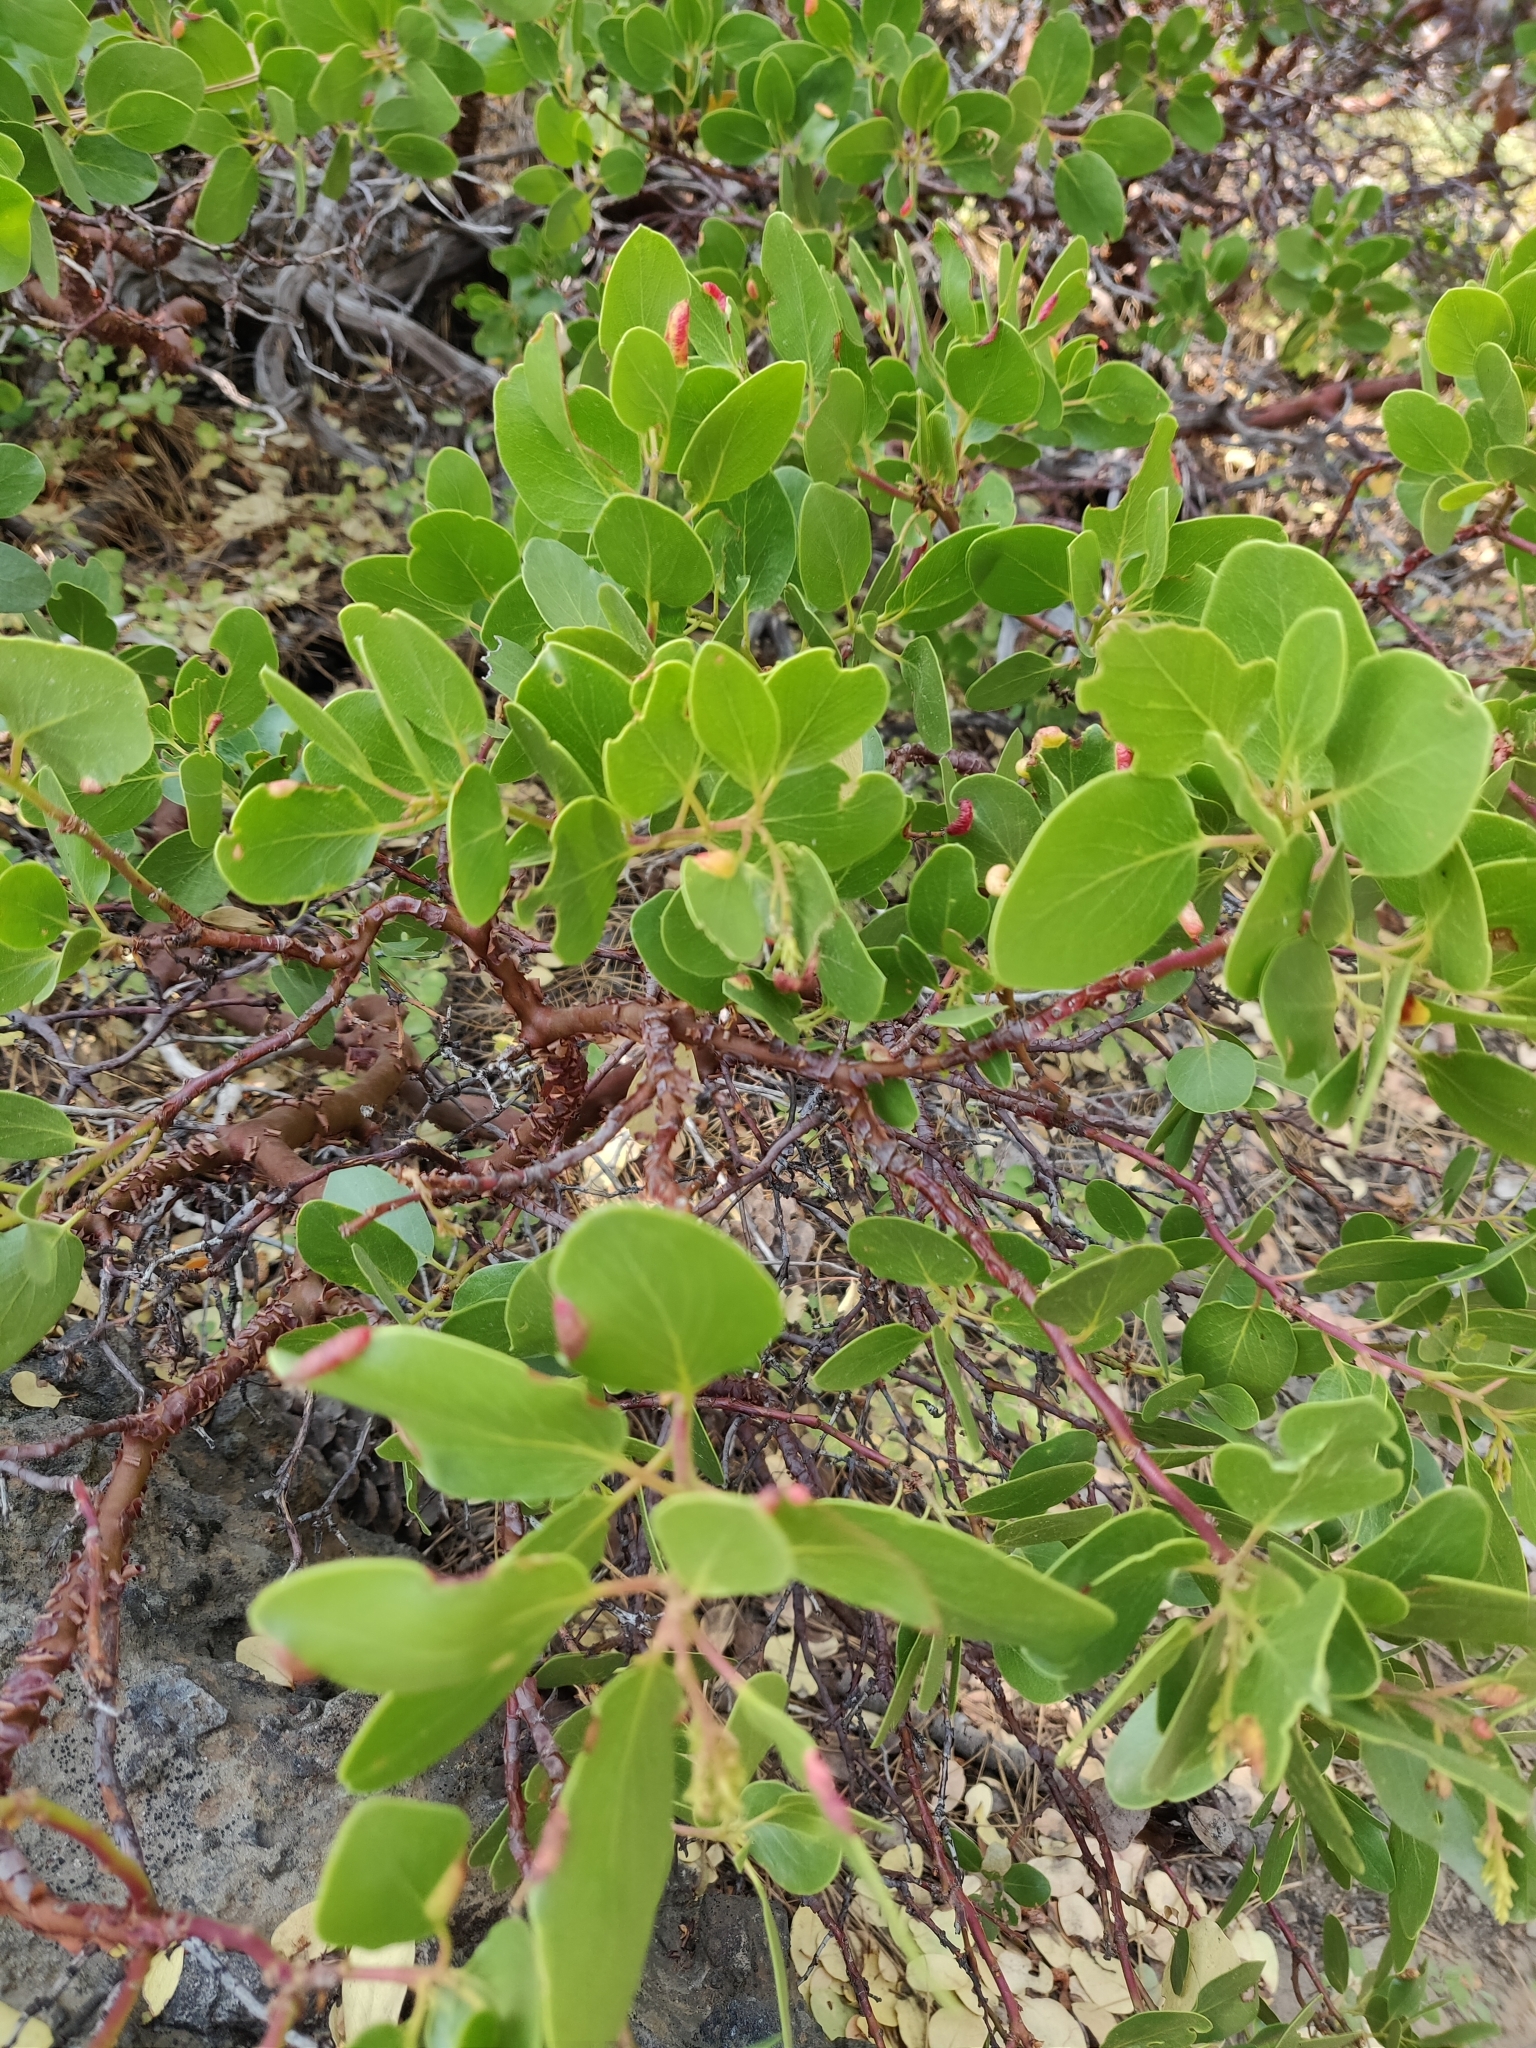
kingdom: Plantae
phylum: Tracheophyta
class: Magnoliopsida
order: Ericales
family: Ericaceae
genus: Arctostaphylos
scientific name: Arctostaphylos patula
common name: Green-leaf manzanita
